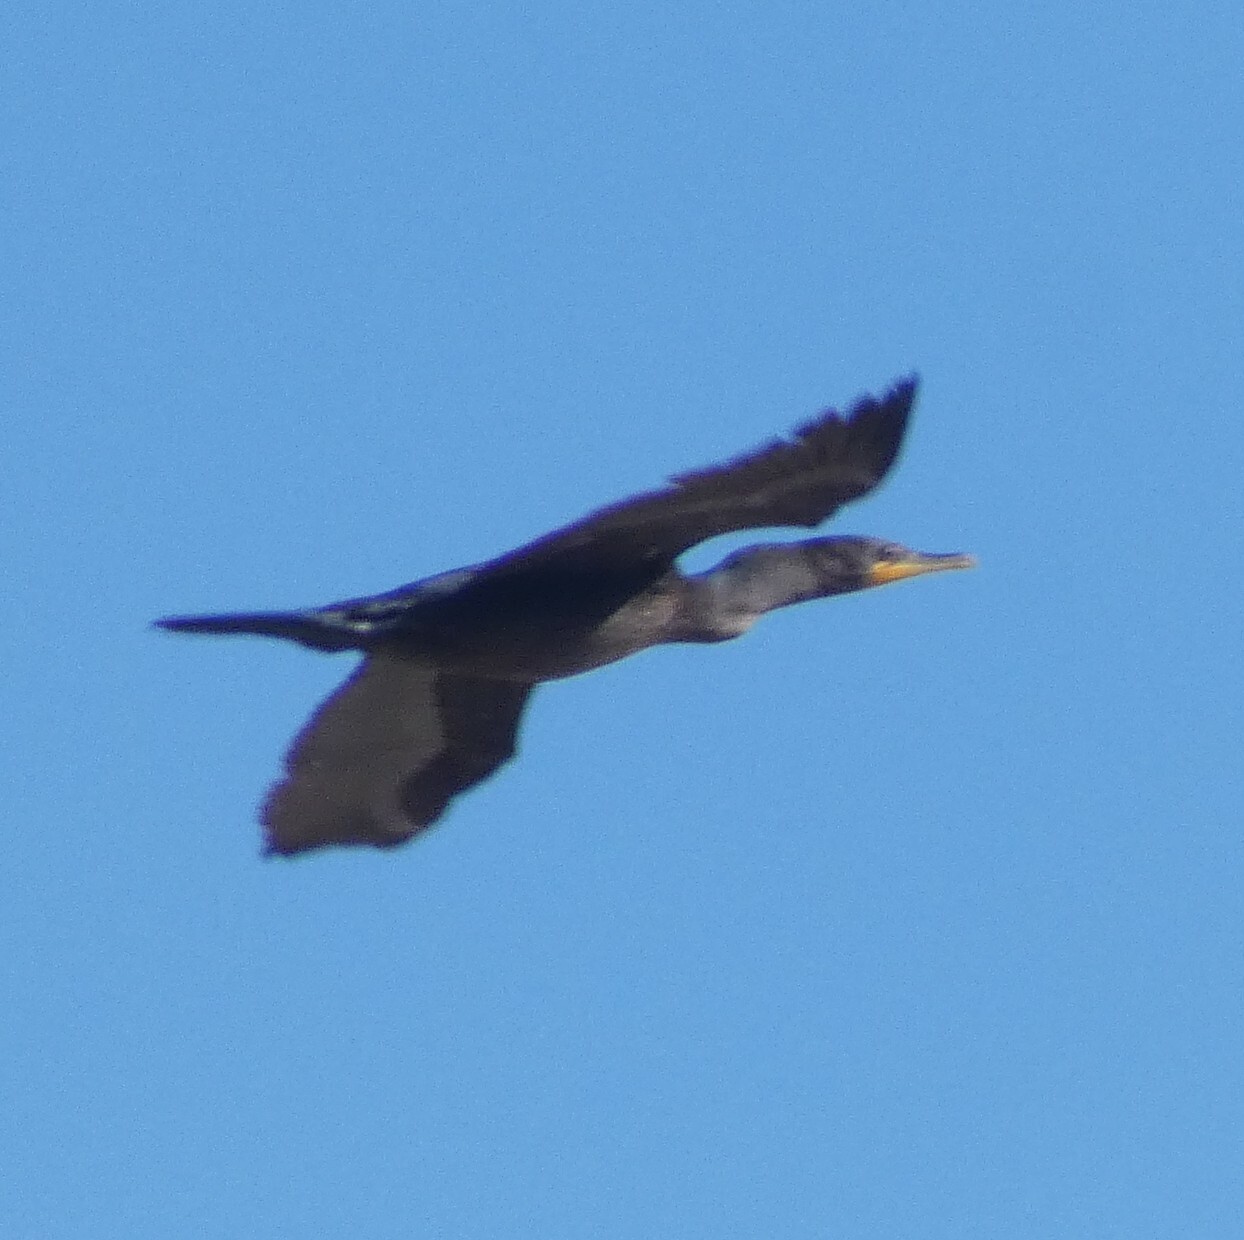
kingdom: Animalia
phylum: Chordata
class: Aves
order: Suliformes
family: Phalacrocoracidae
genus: Phalacrocorax
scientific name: Phalacrocorax auritus
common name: Double-crested cormorant
